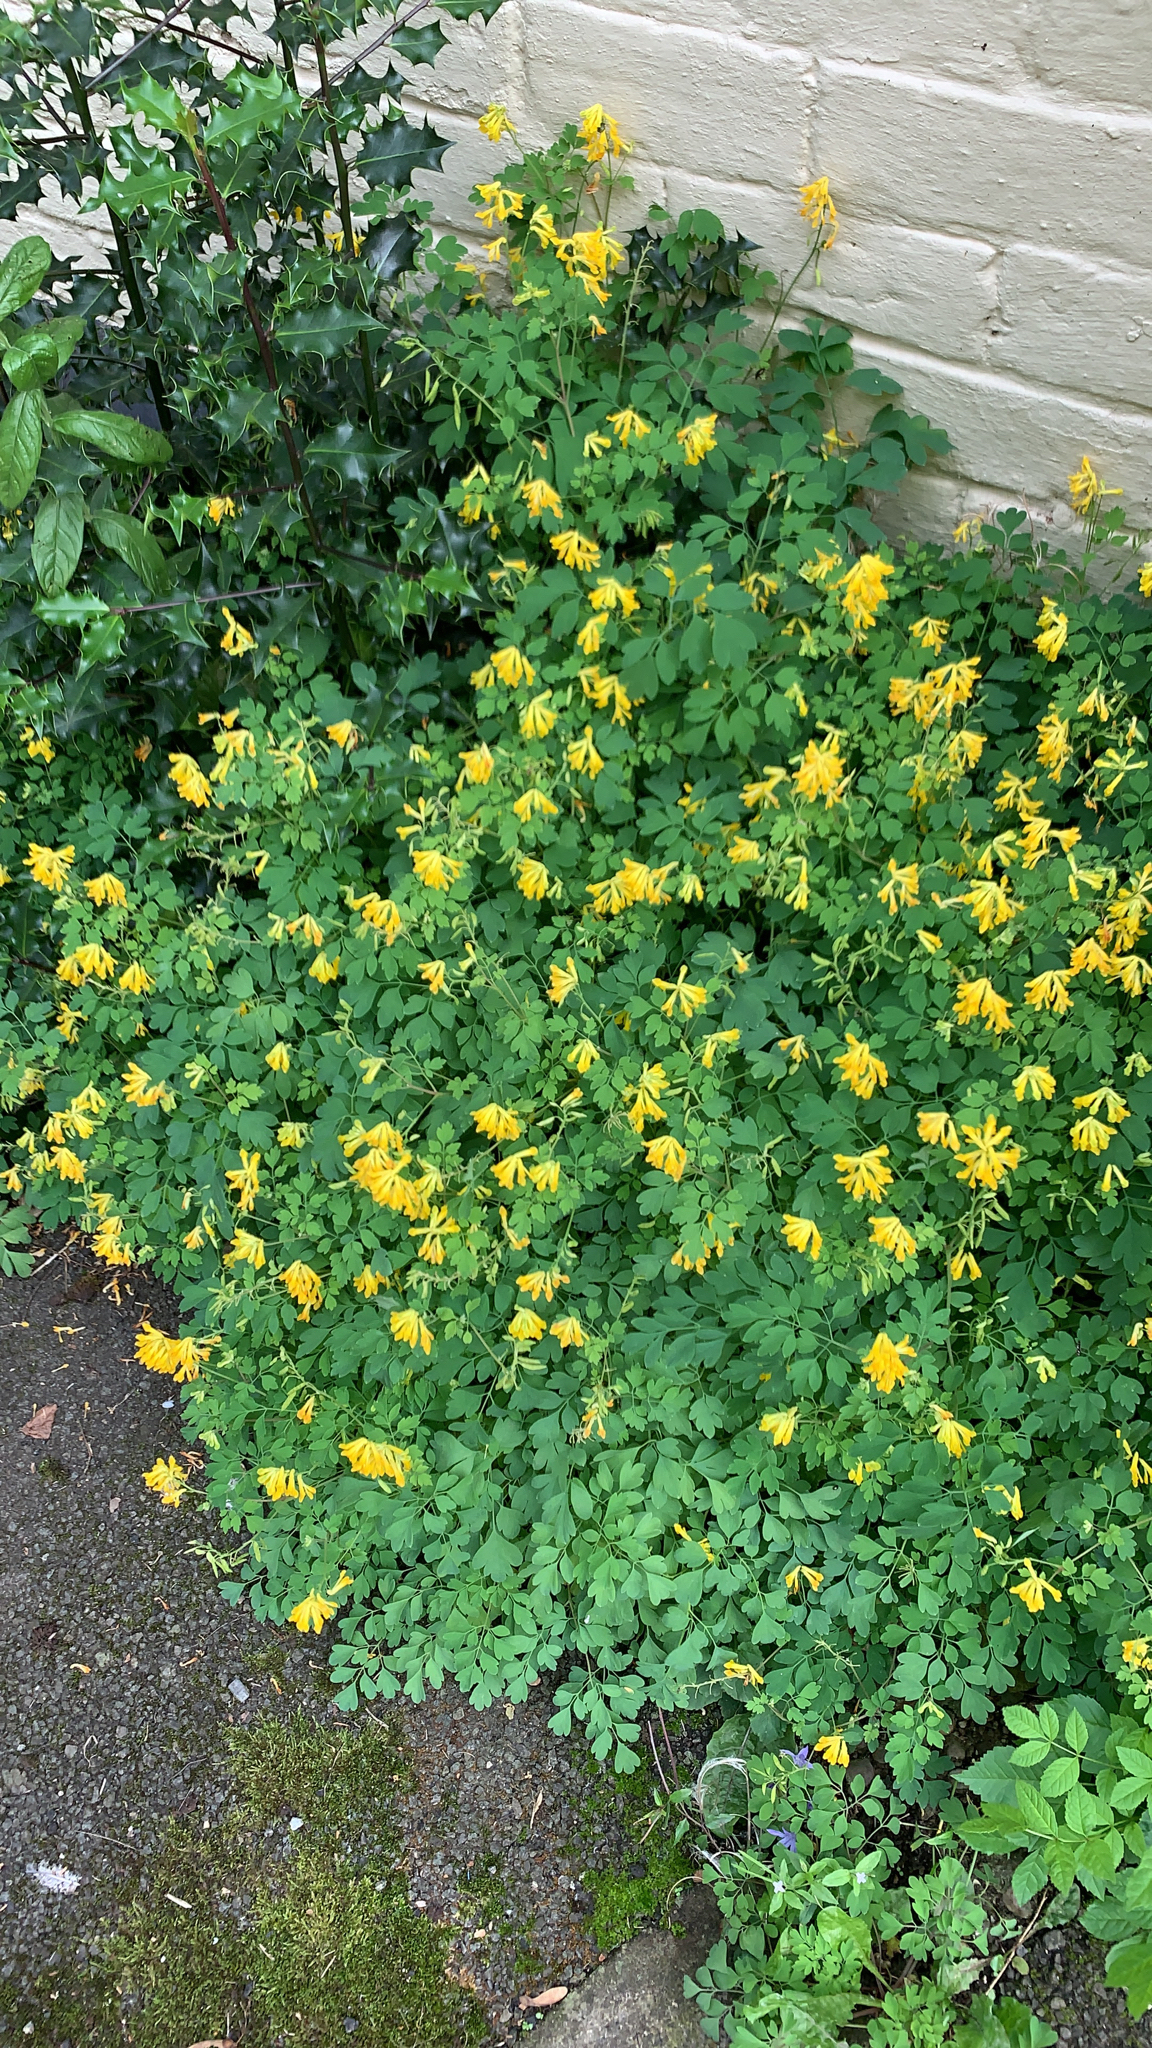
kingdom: Plantae
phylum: Tracheophyta
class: Magnoliopsida
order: Ranunculales
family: Papaveraceae
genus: Pseudofumaria
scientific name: Pseudofumaria lutea
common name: Yellow corydalis
